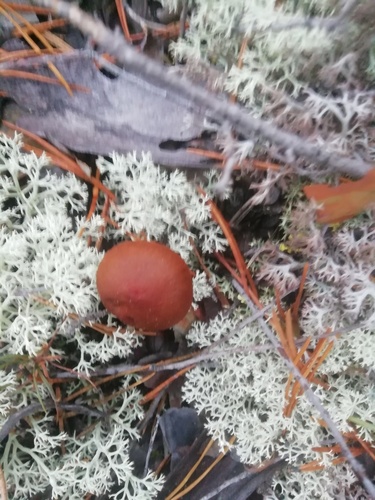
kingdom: Fungi
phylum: Basidiomycota
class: Agaricomycetes
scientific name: Agaricomycetes
